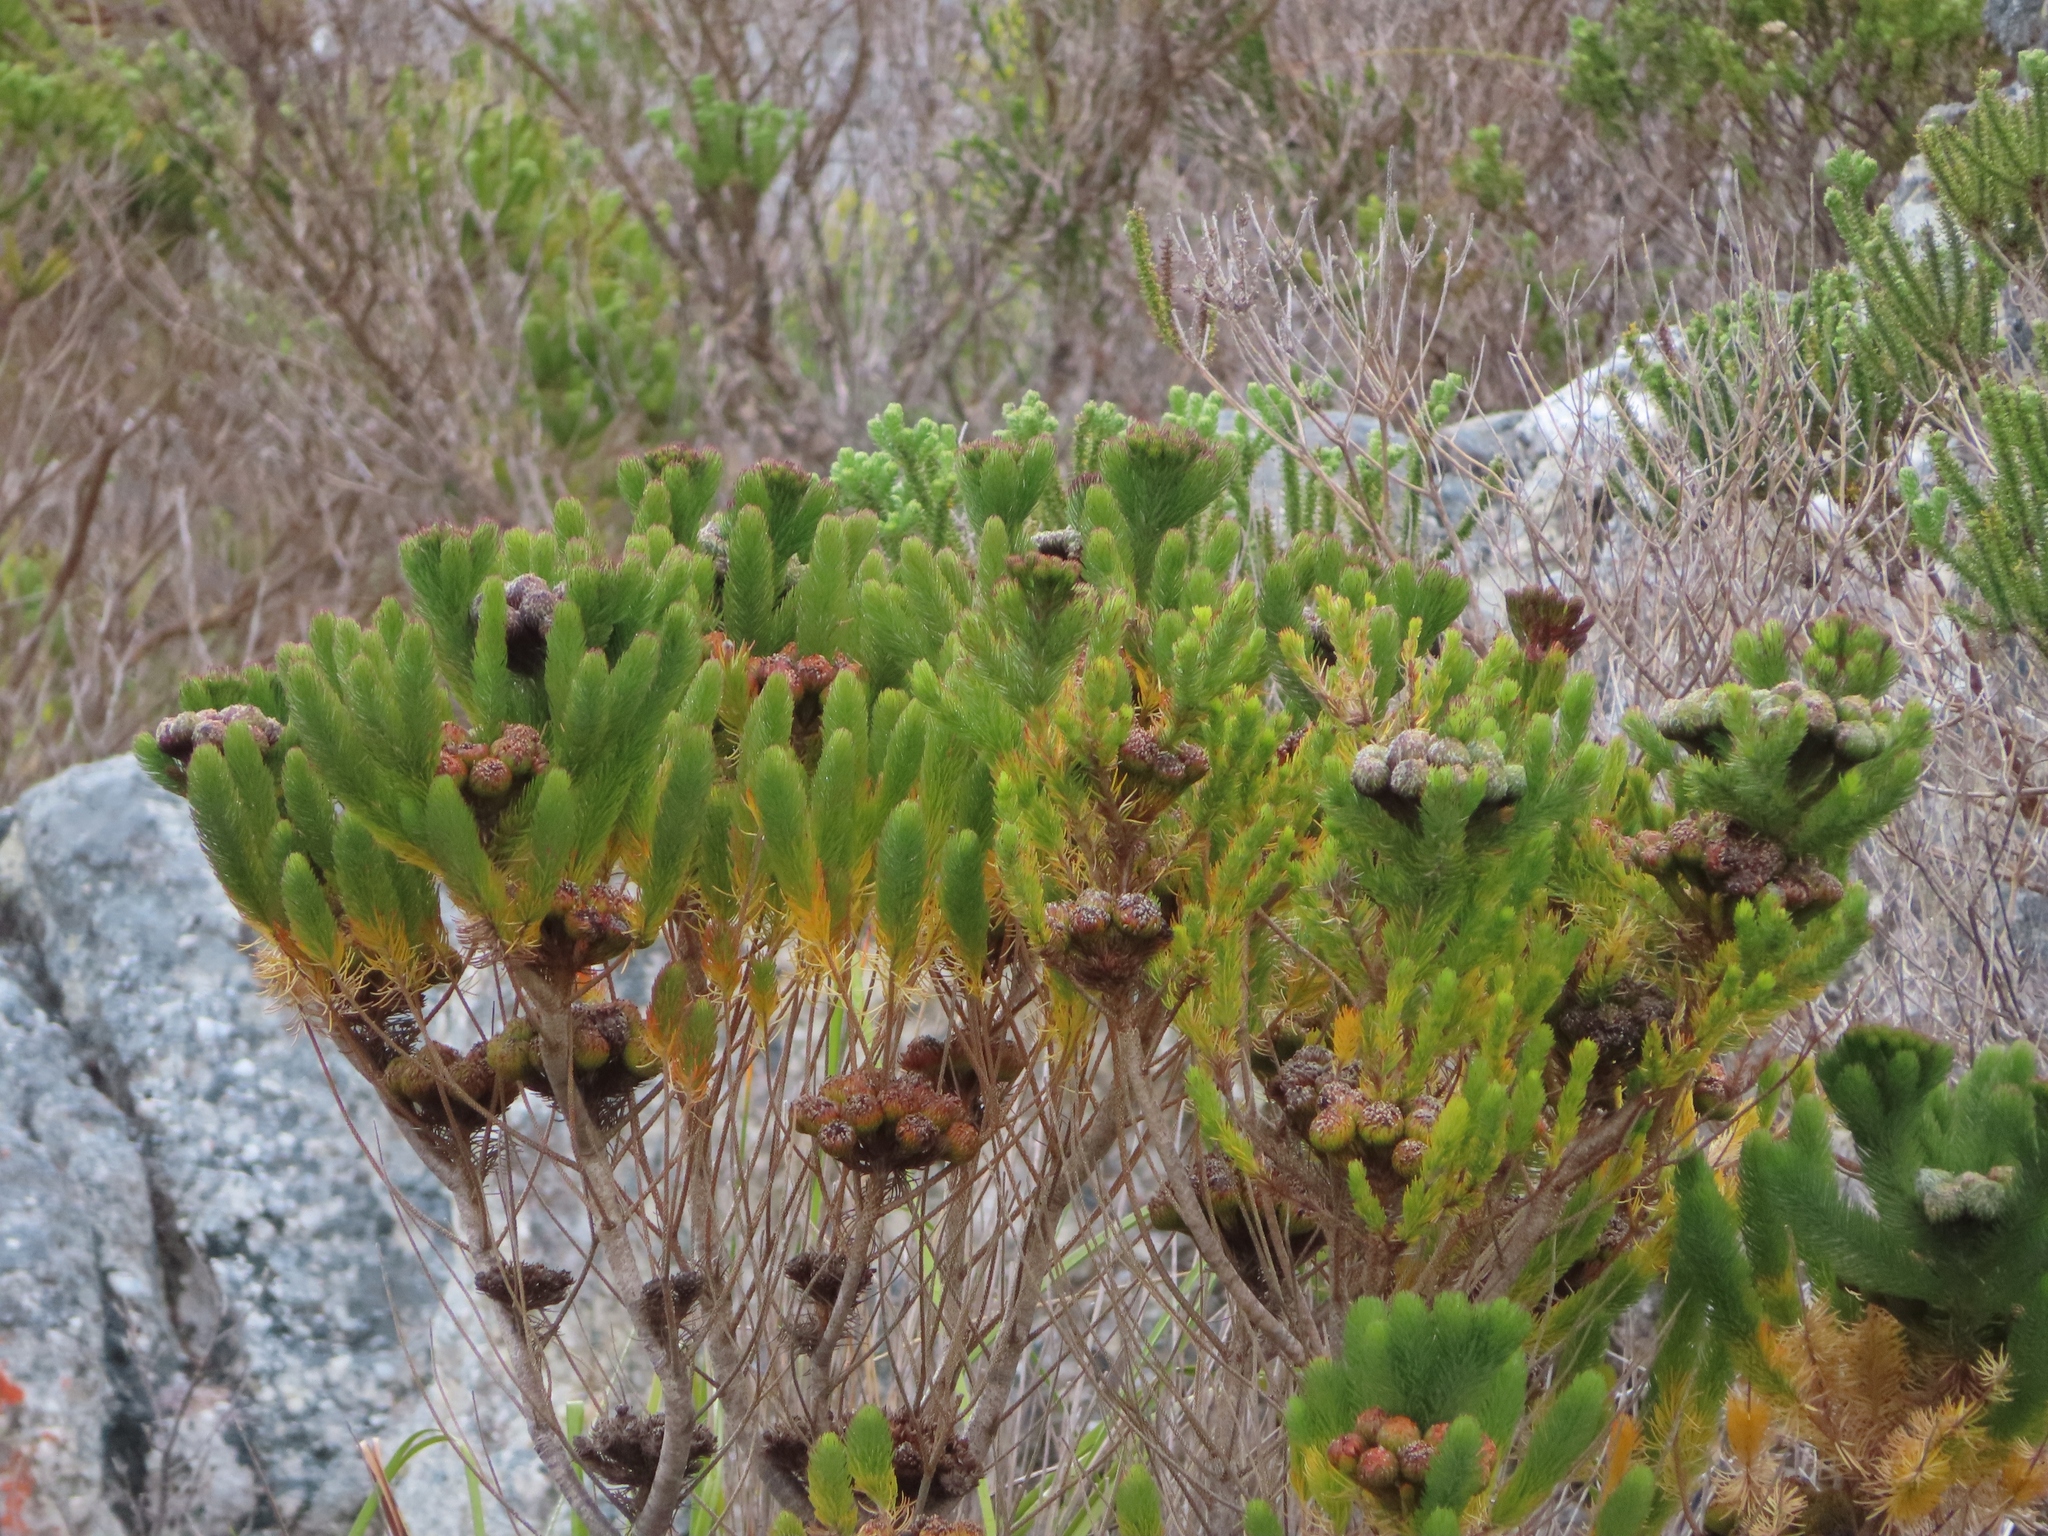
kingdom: Plantae
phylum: Tracheophyta
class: Magnoliopsida
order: Bruniales
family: Bruniaceae
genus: Berzelia
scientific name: Berzelia albiflora
